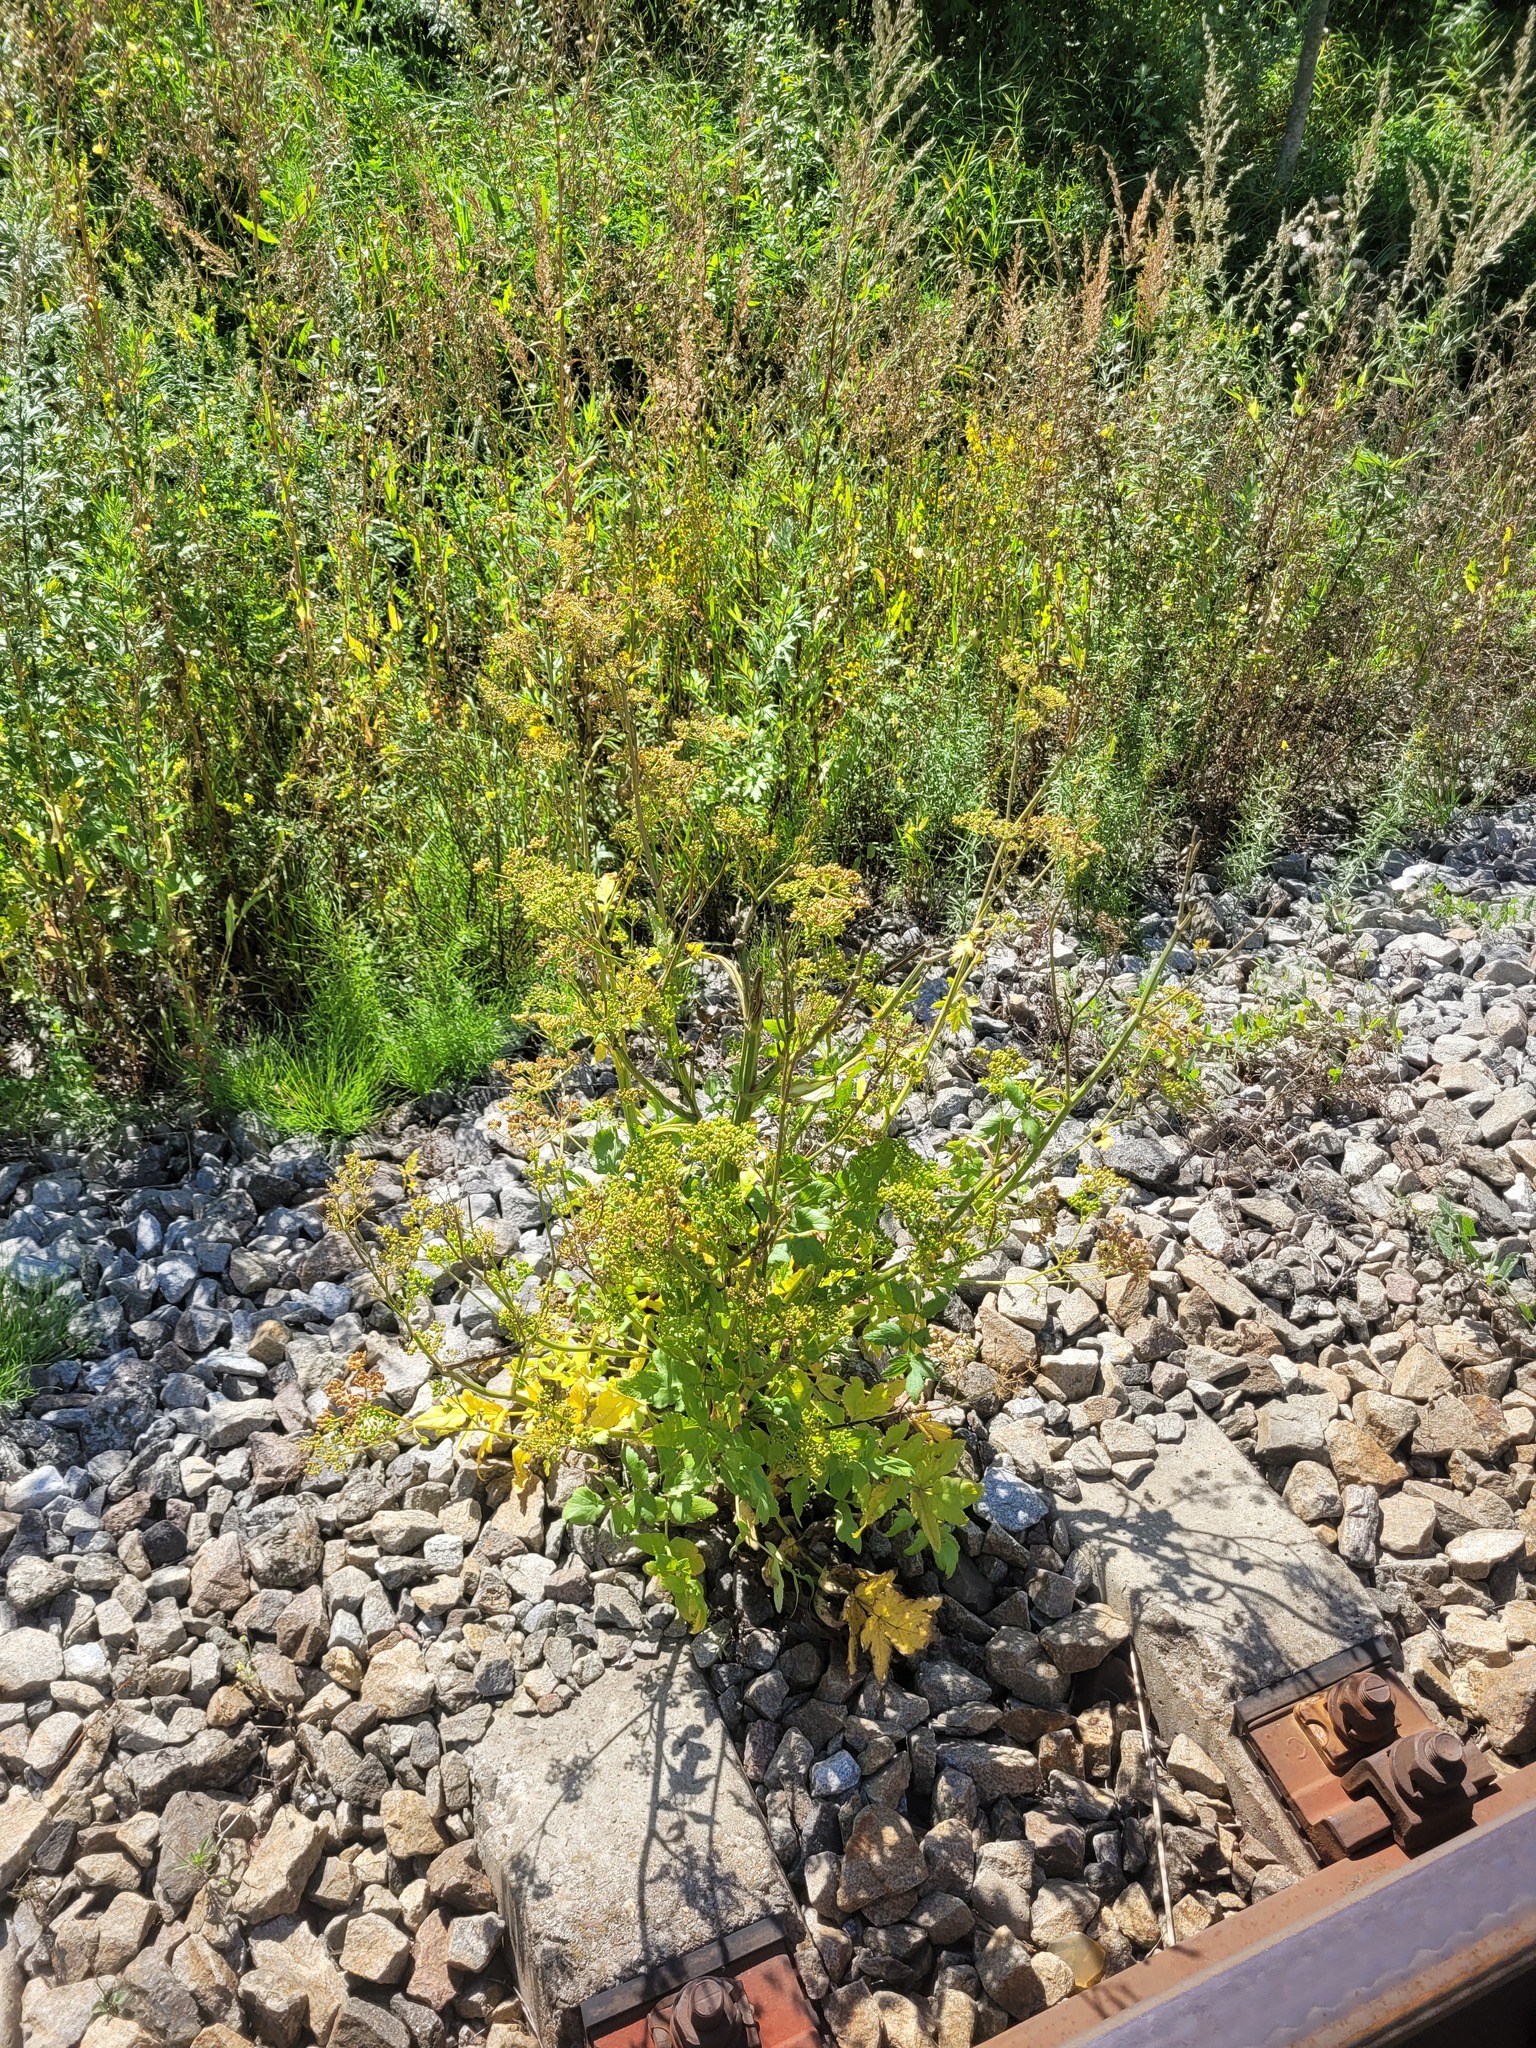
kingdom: Plantae
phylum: Tracheophyta
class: Magnoliopsida
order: Apiales
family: Apiaceae
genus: Pastinaca
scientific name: Pastinaca sativa
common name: Wild parsnip
